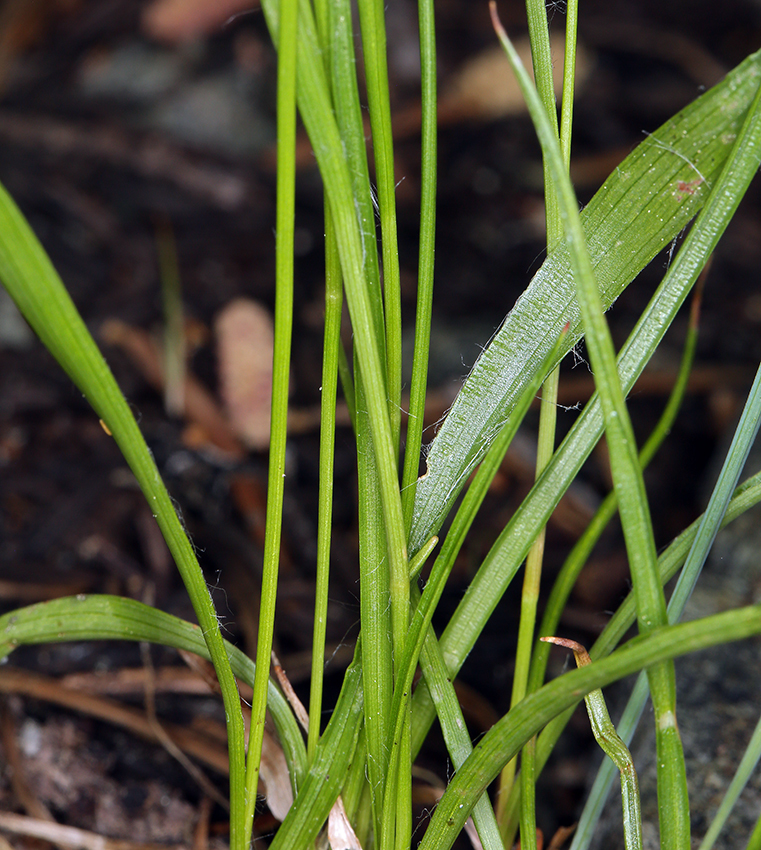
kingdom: Plantae
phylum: Tracheophyta
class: Liliopsida
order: Poales
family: Juncaceae
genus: Luzula
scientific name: Luzula comosa
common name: Pacific woodrush
